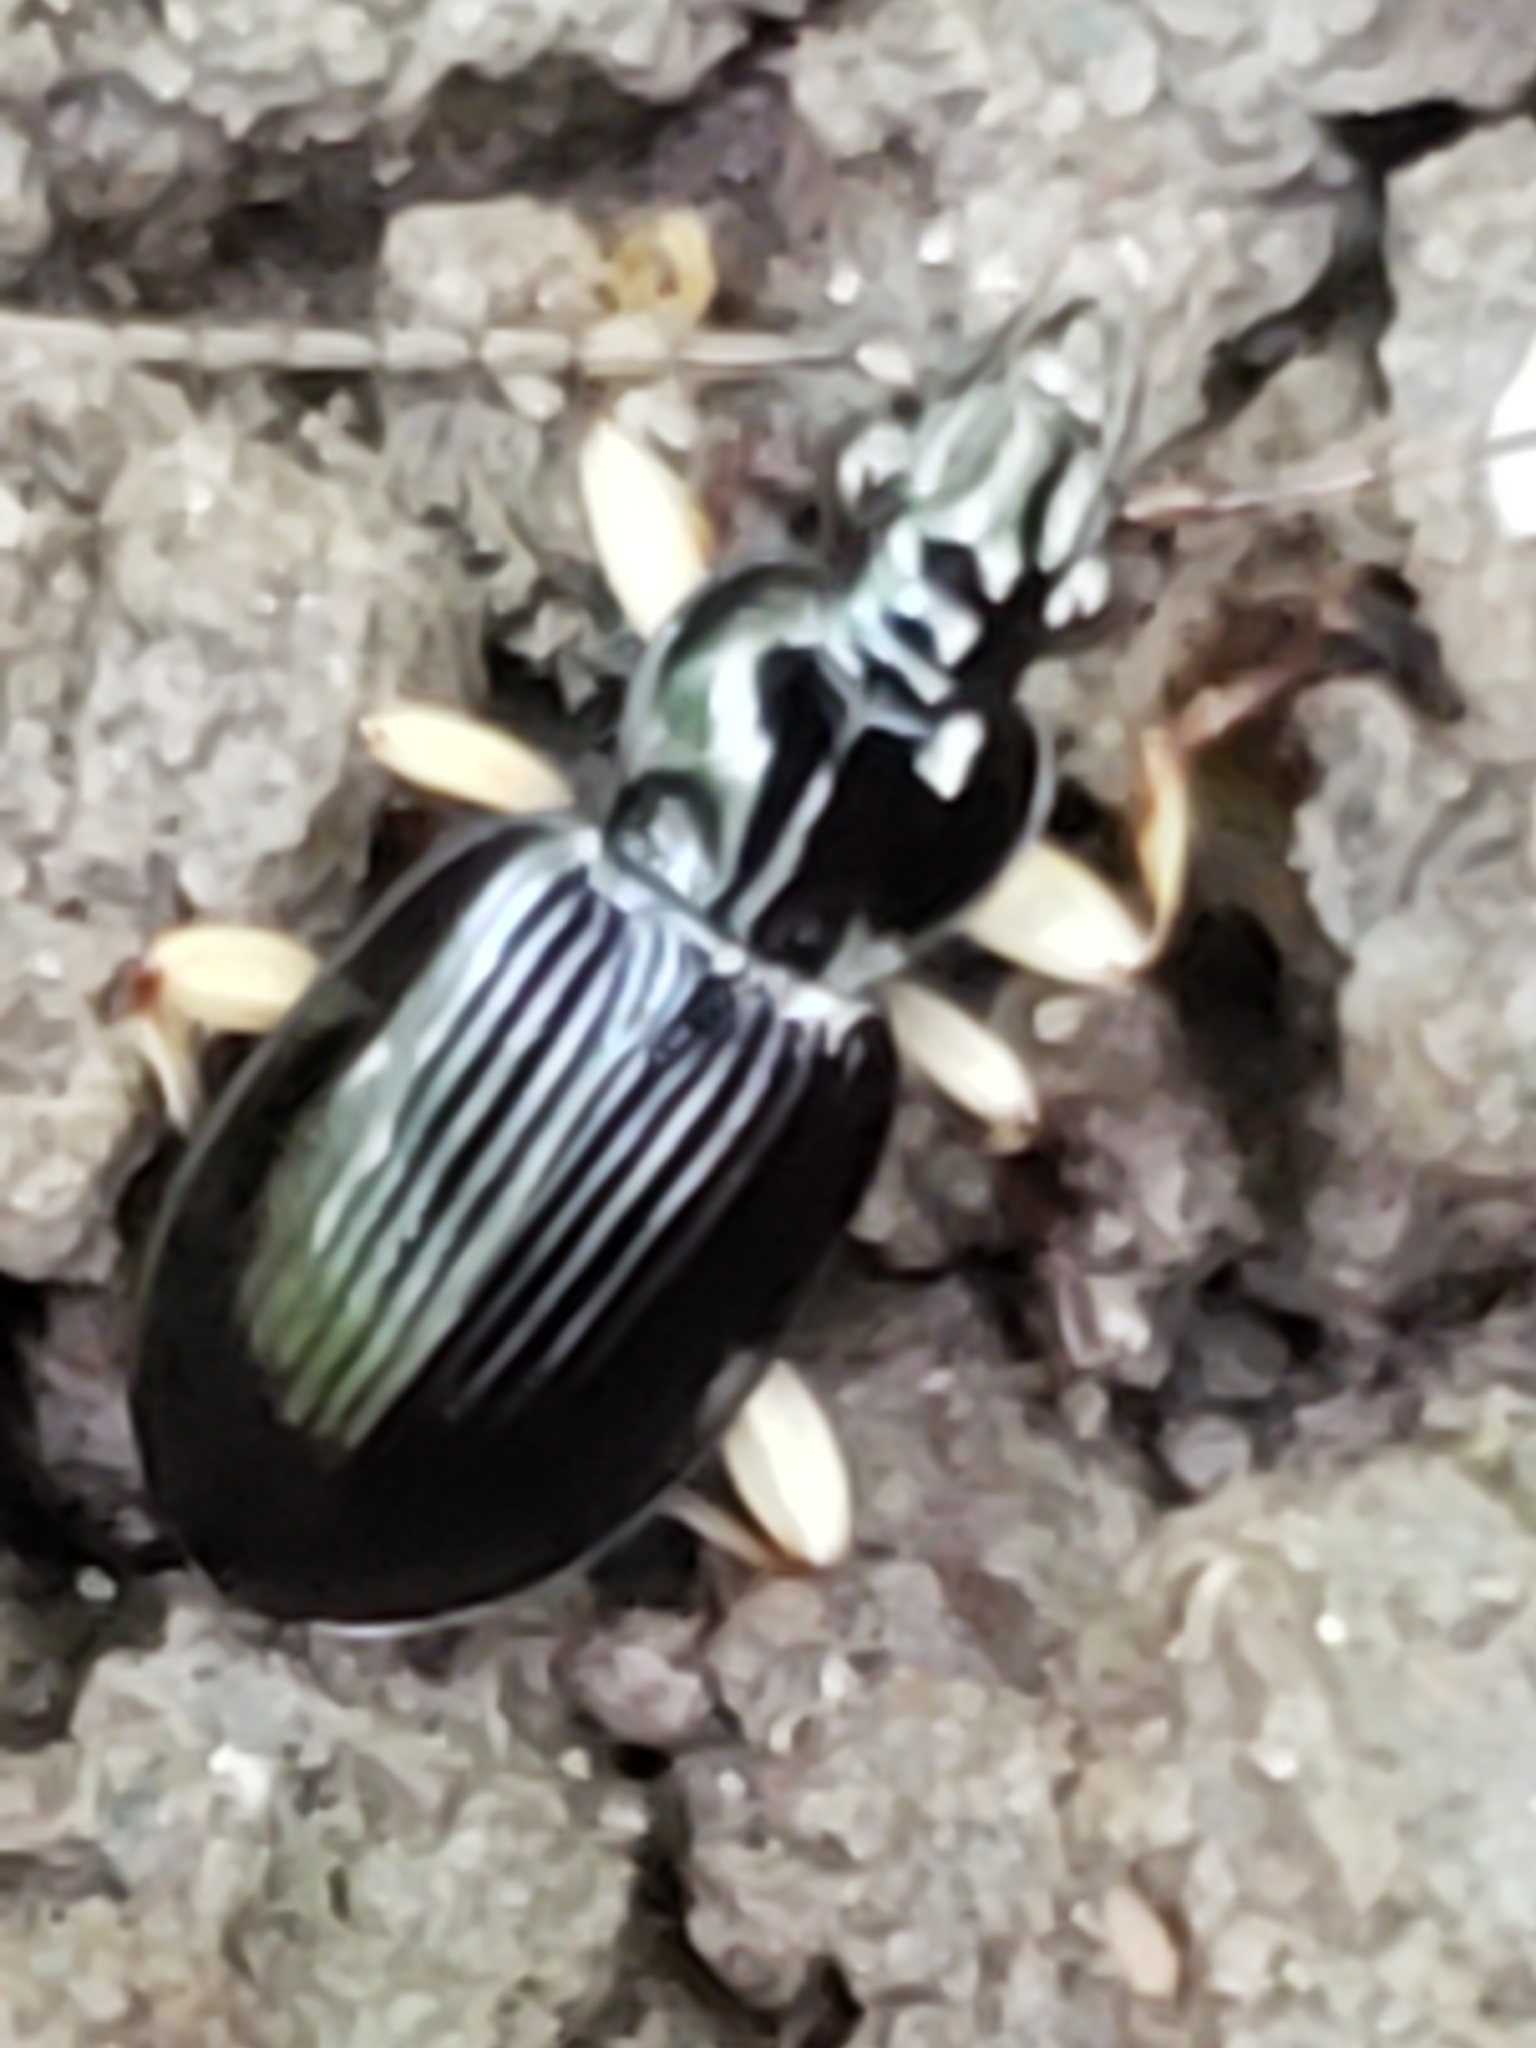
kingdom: Animalia
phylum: Arthropoda
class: Insecta
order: Coleoptera
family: Carabidae
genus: Patrobus
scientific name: Patrobus longicornis
